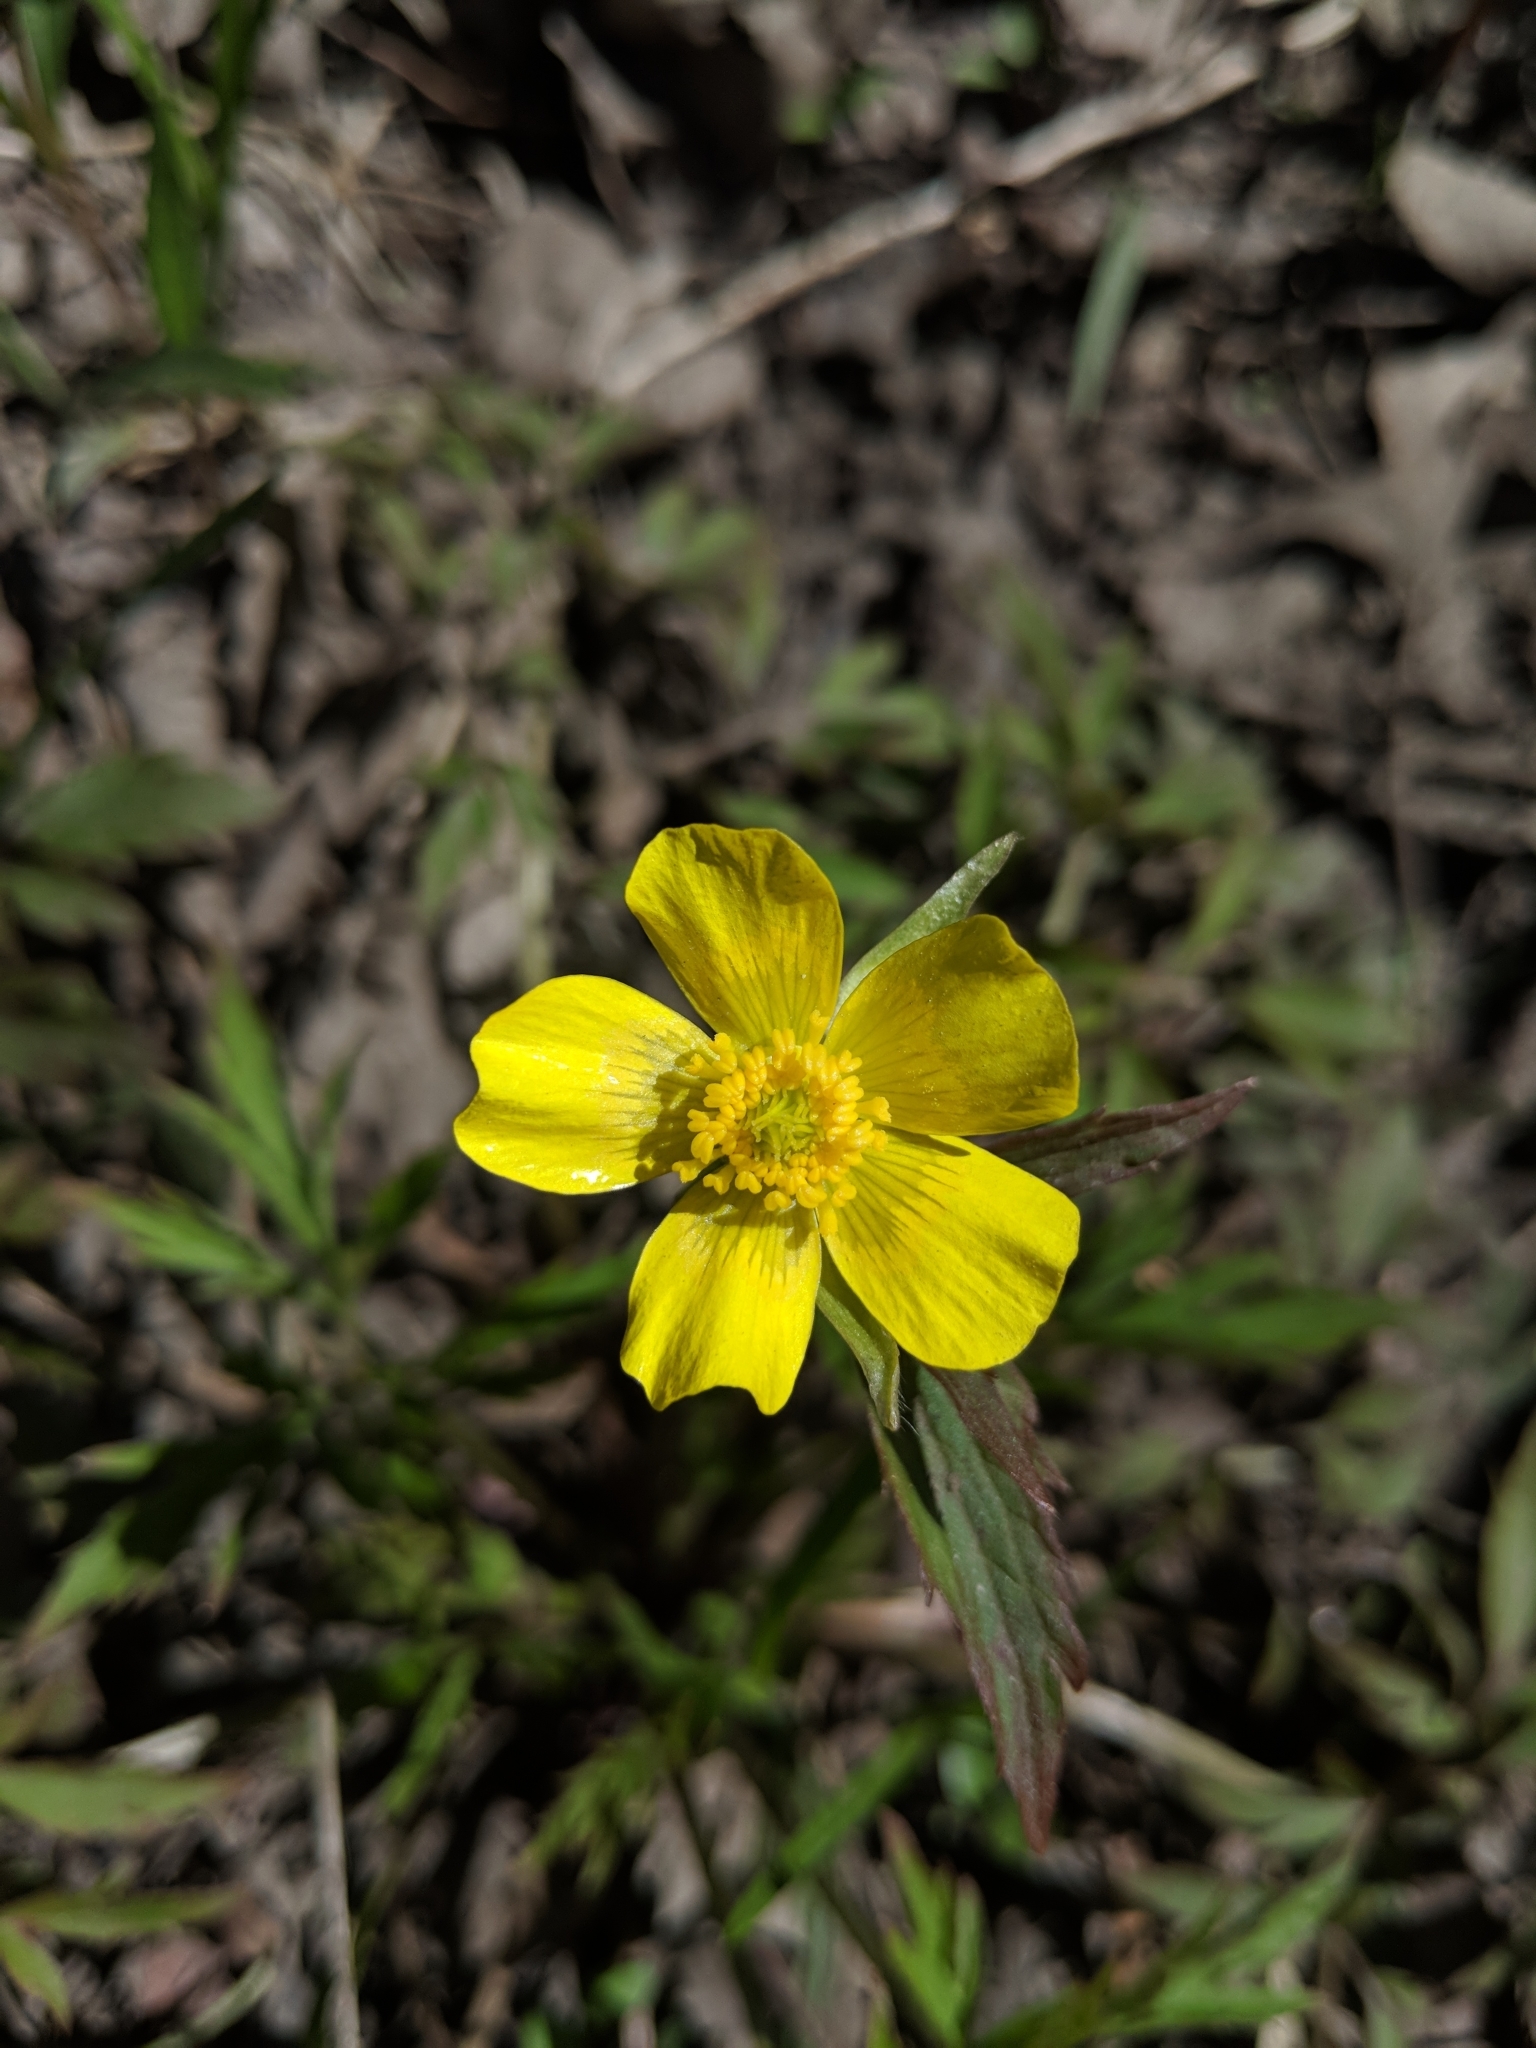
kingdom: Plantae
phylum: Tracheophyta
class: Magnoliopsida
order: Ranunculales
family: Ranunculaceae
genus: Ranunculus
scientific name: Ranunculus hispidus
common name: Bristly buttercup
